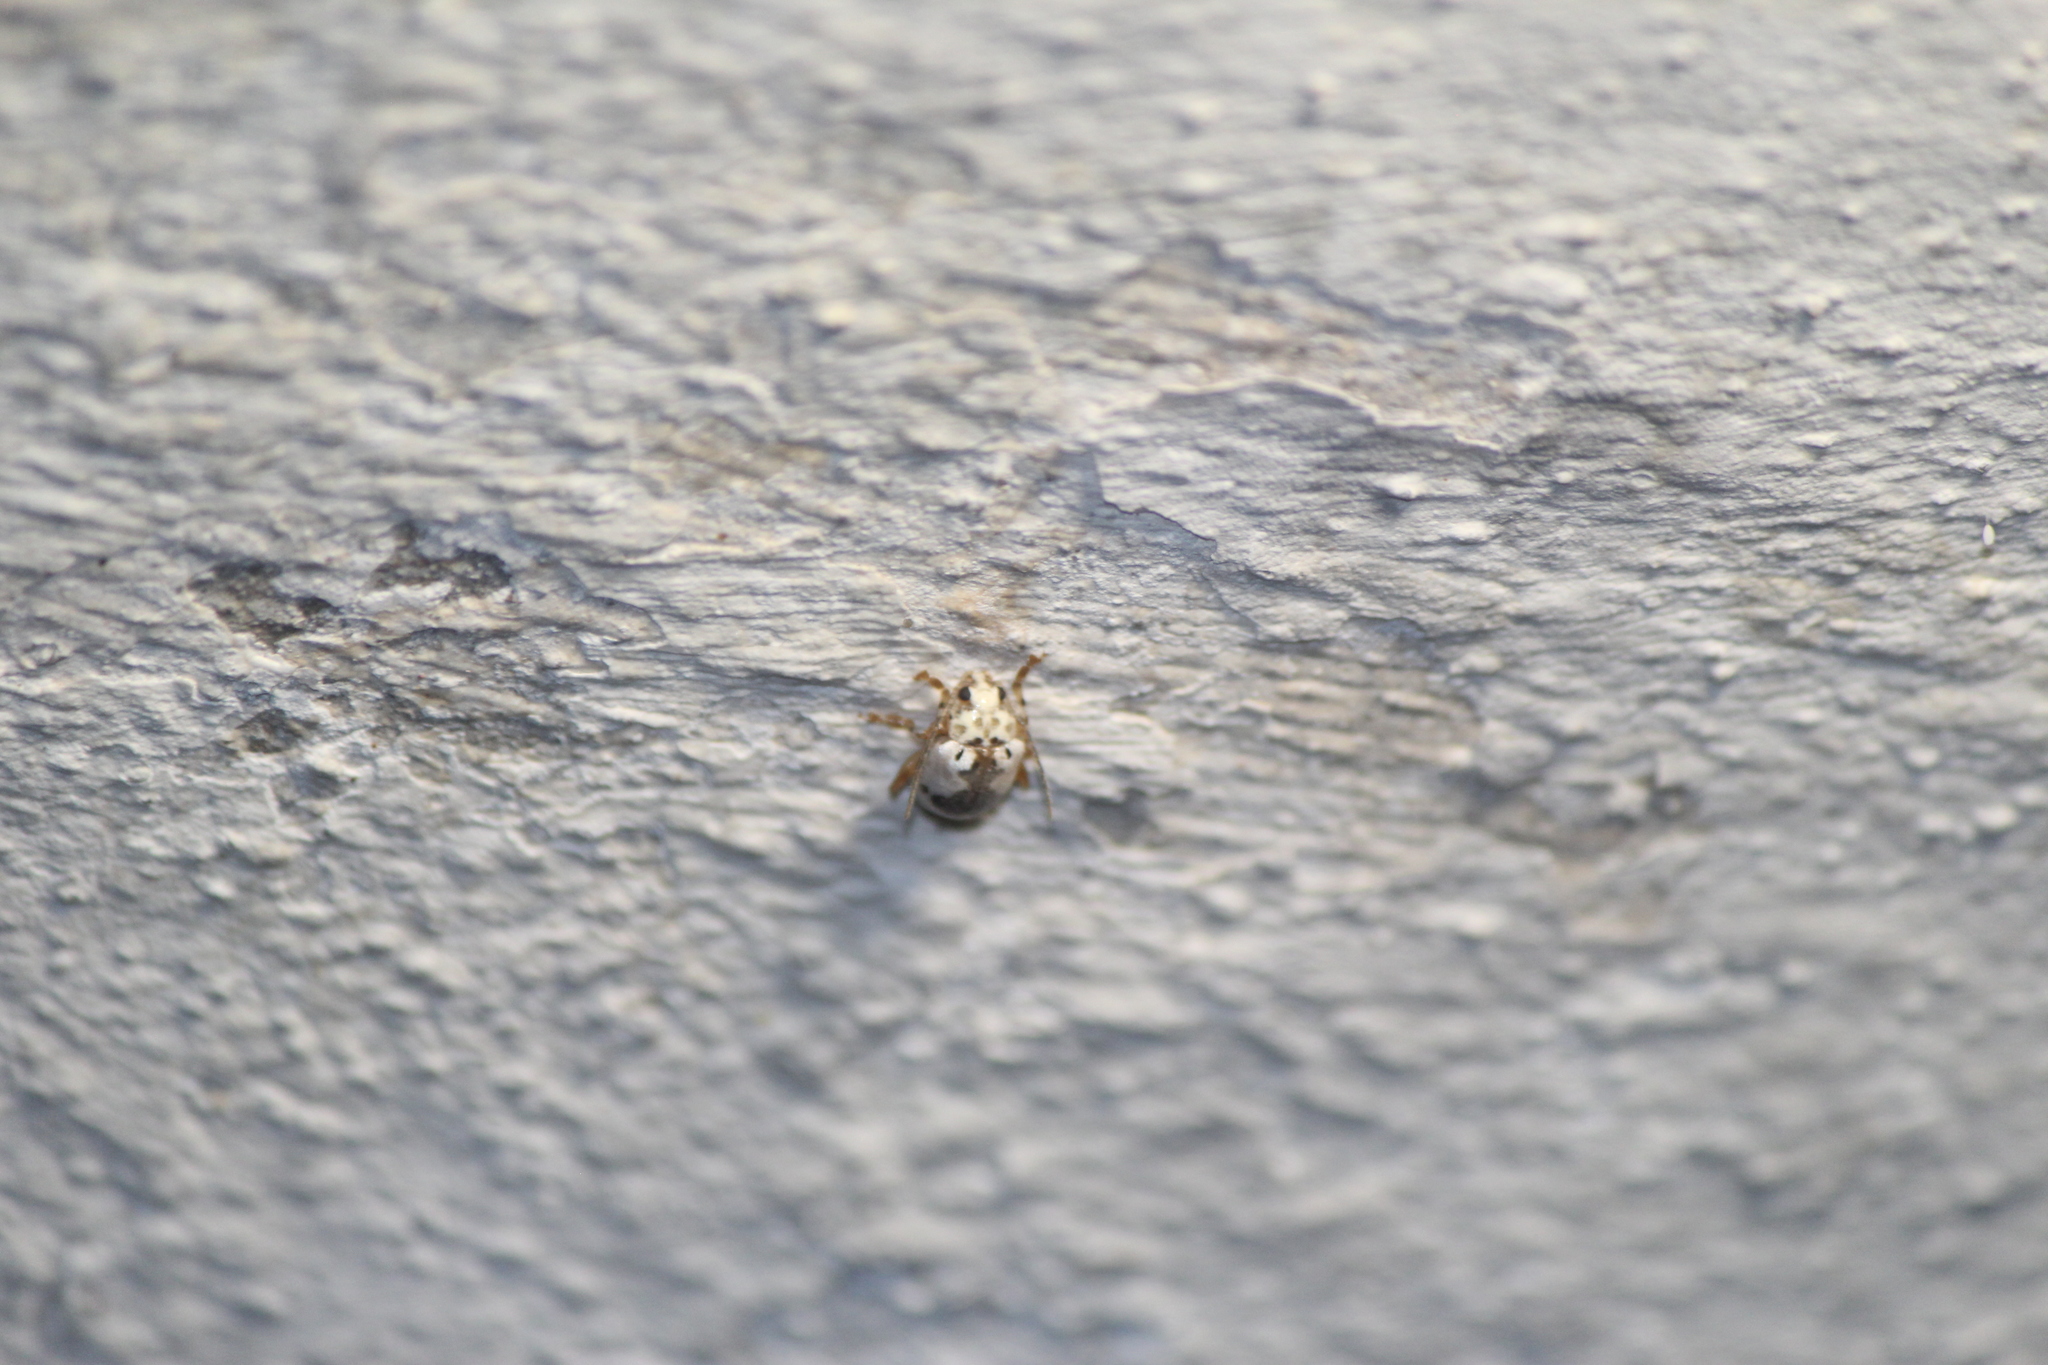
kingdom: Animalia
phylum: Arthropoda
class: Insecta
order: Coleoptera
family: Chrysomelidae
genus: Acrocyum
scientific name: Acrocyum
